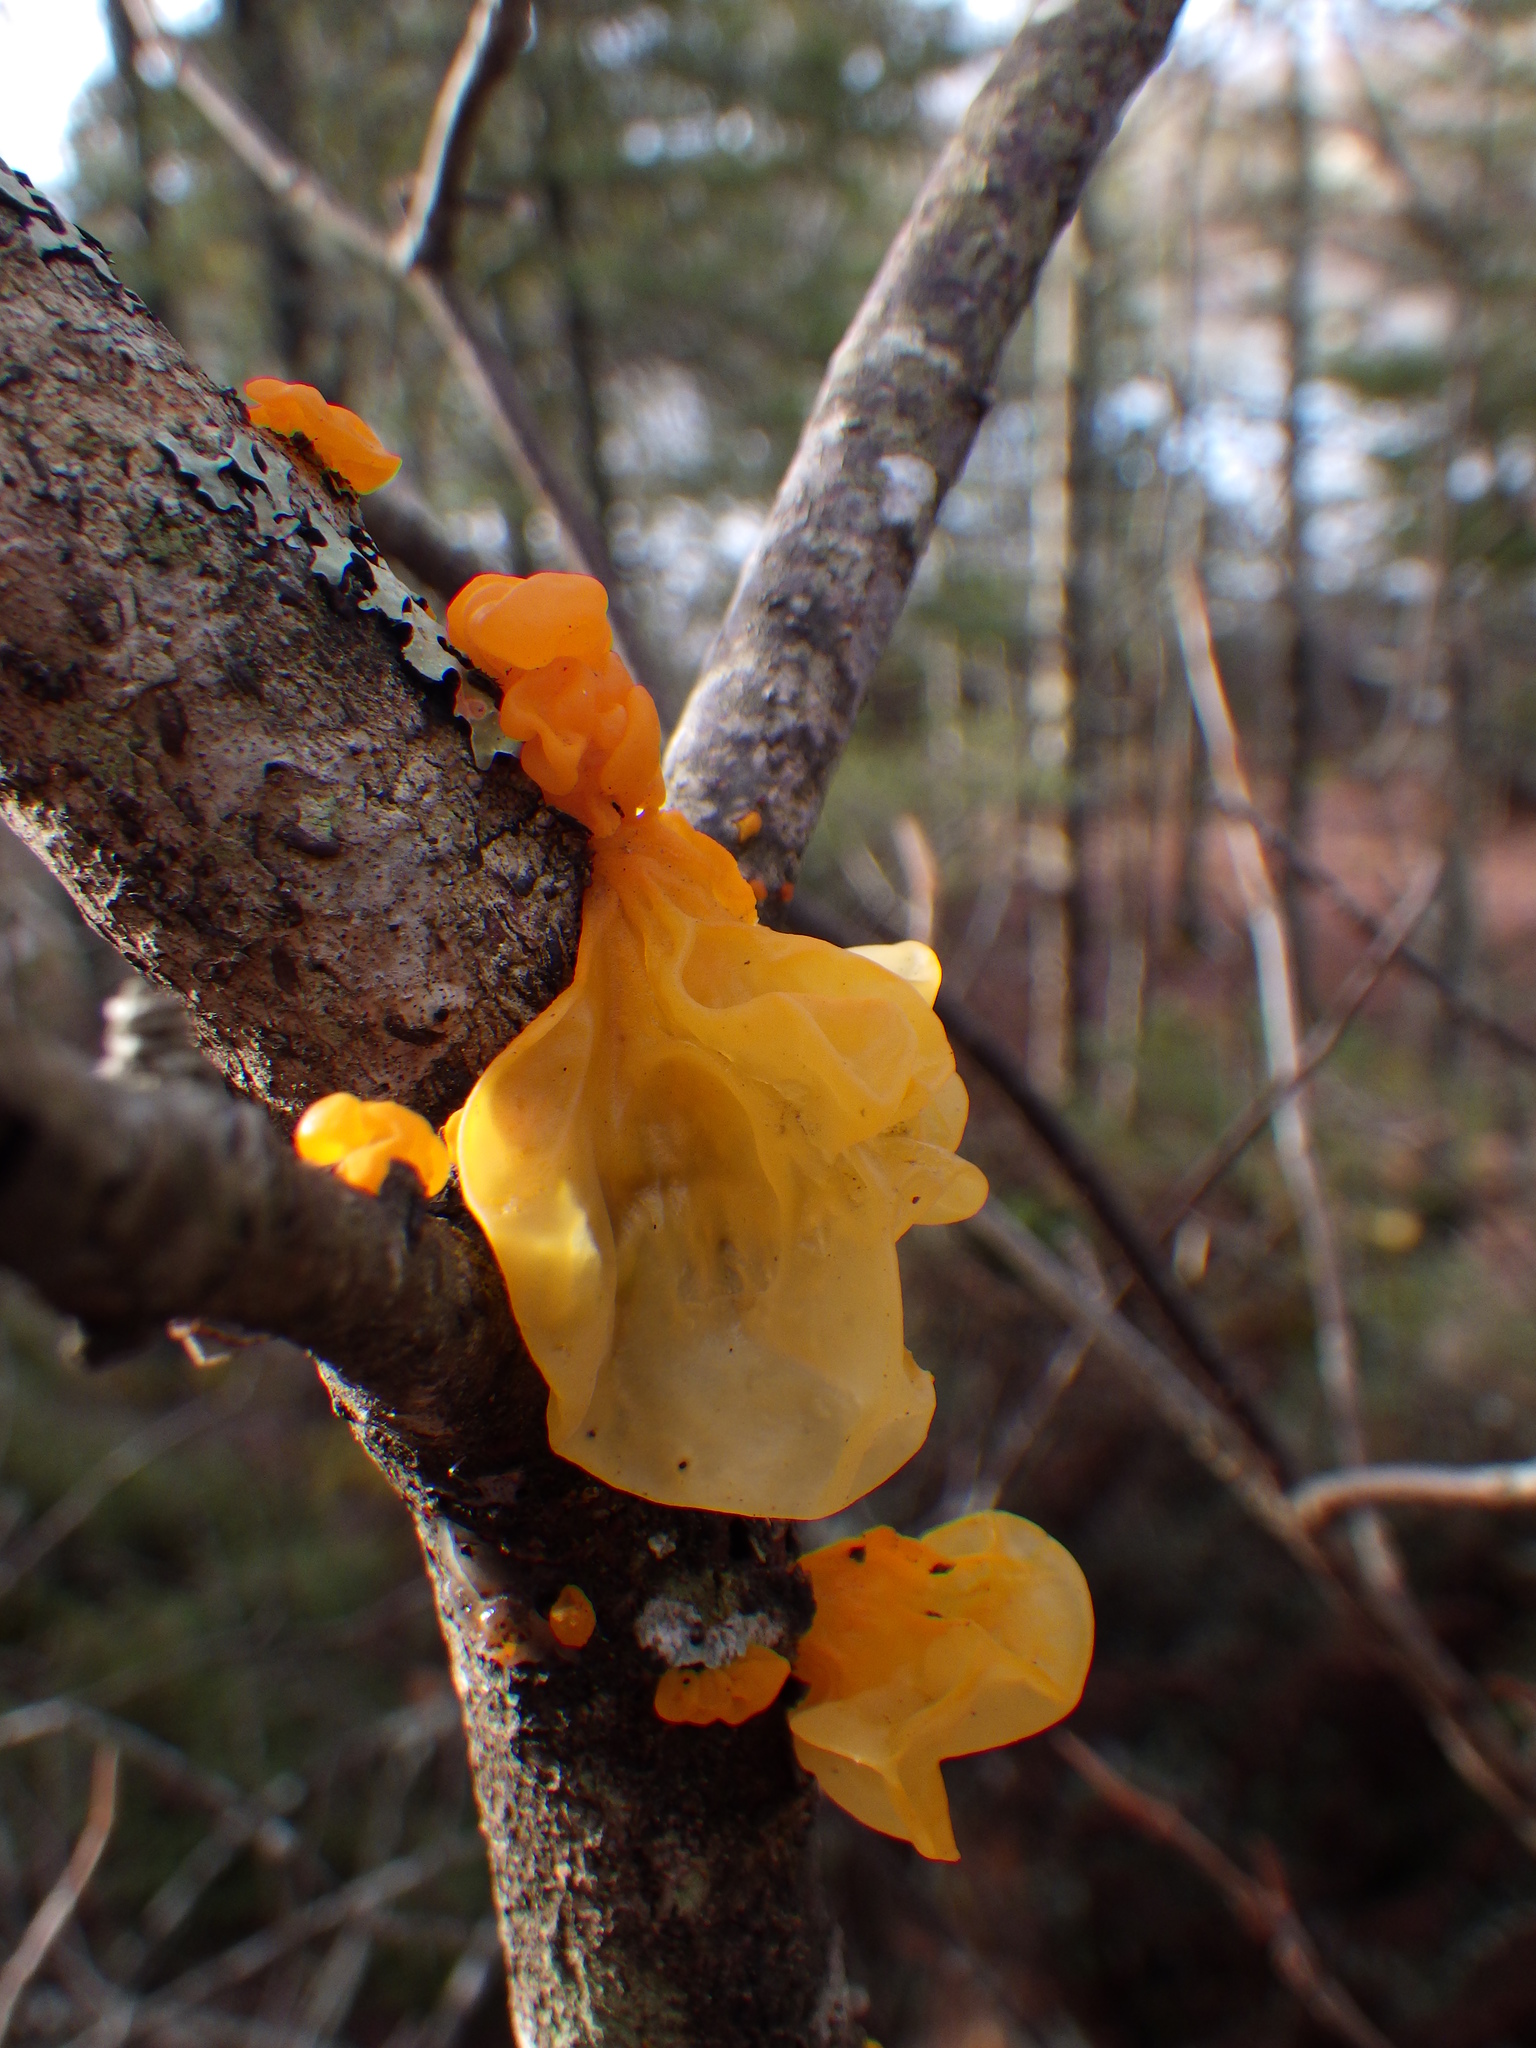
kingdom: Fungi
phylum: Basidiomycota
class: Tremellomycetes
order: Tremellales
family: Tremellaceae
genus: Tremella
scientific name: Tremella mesenterica
